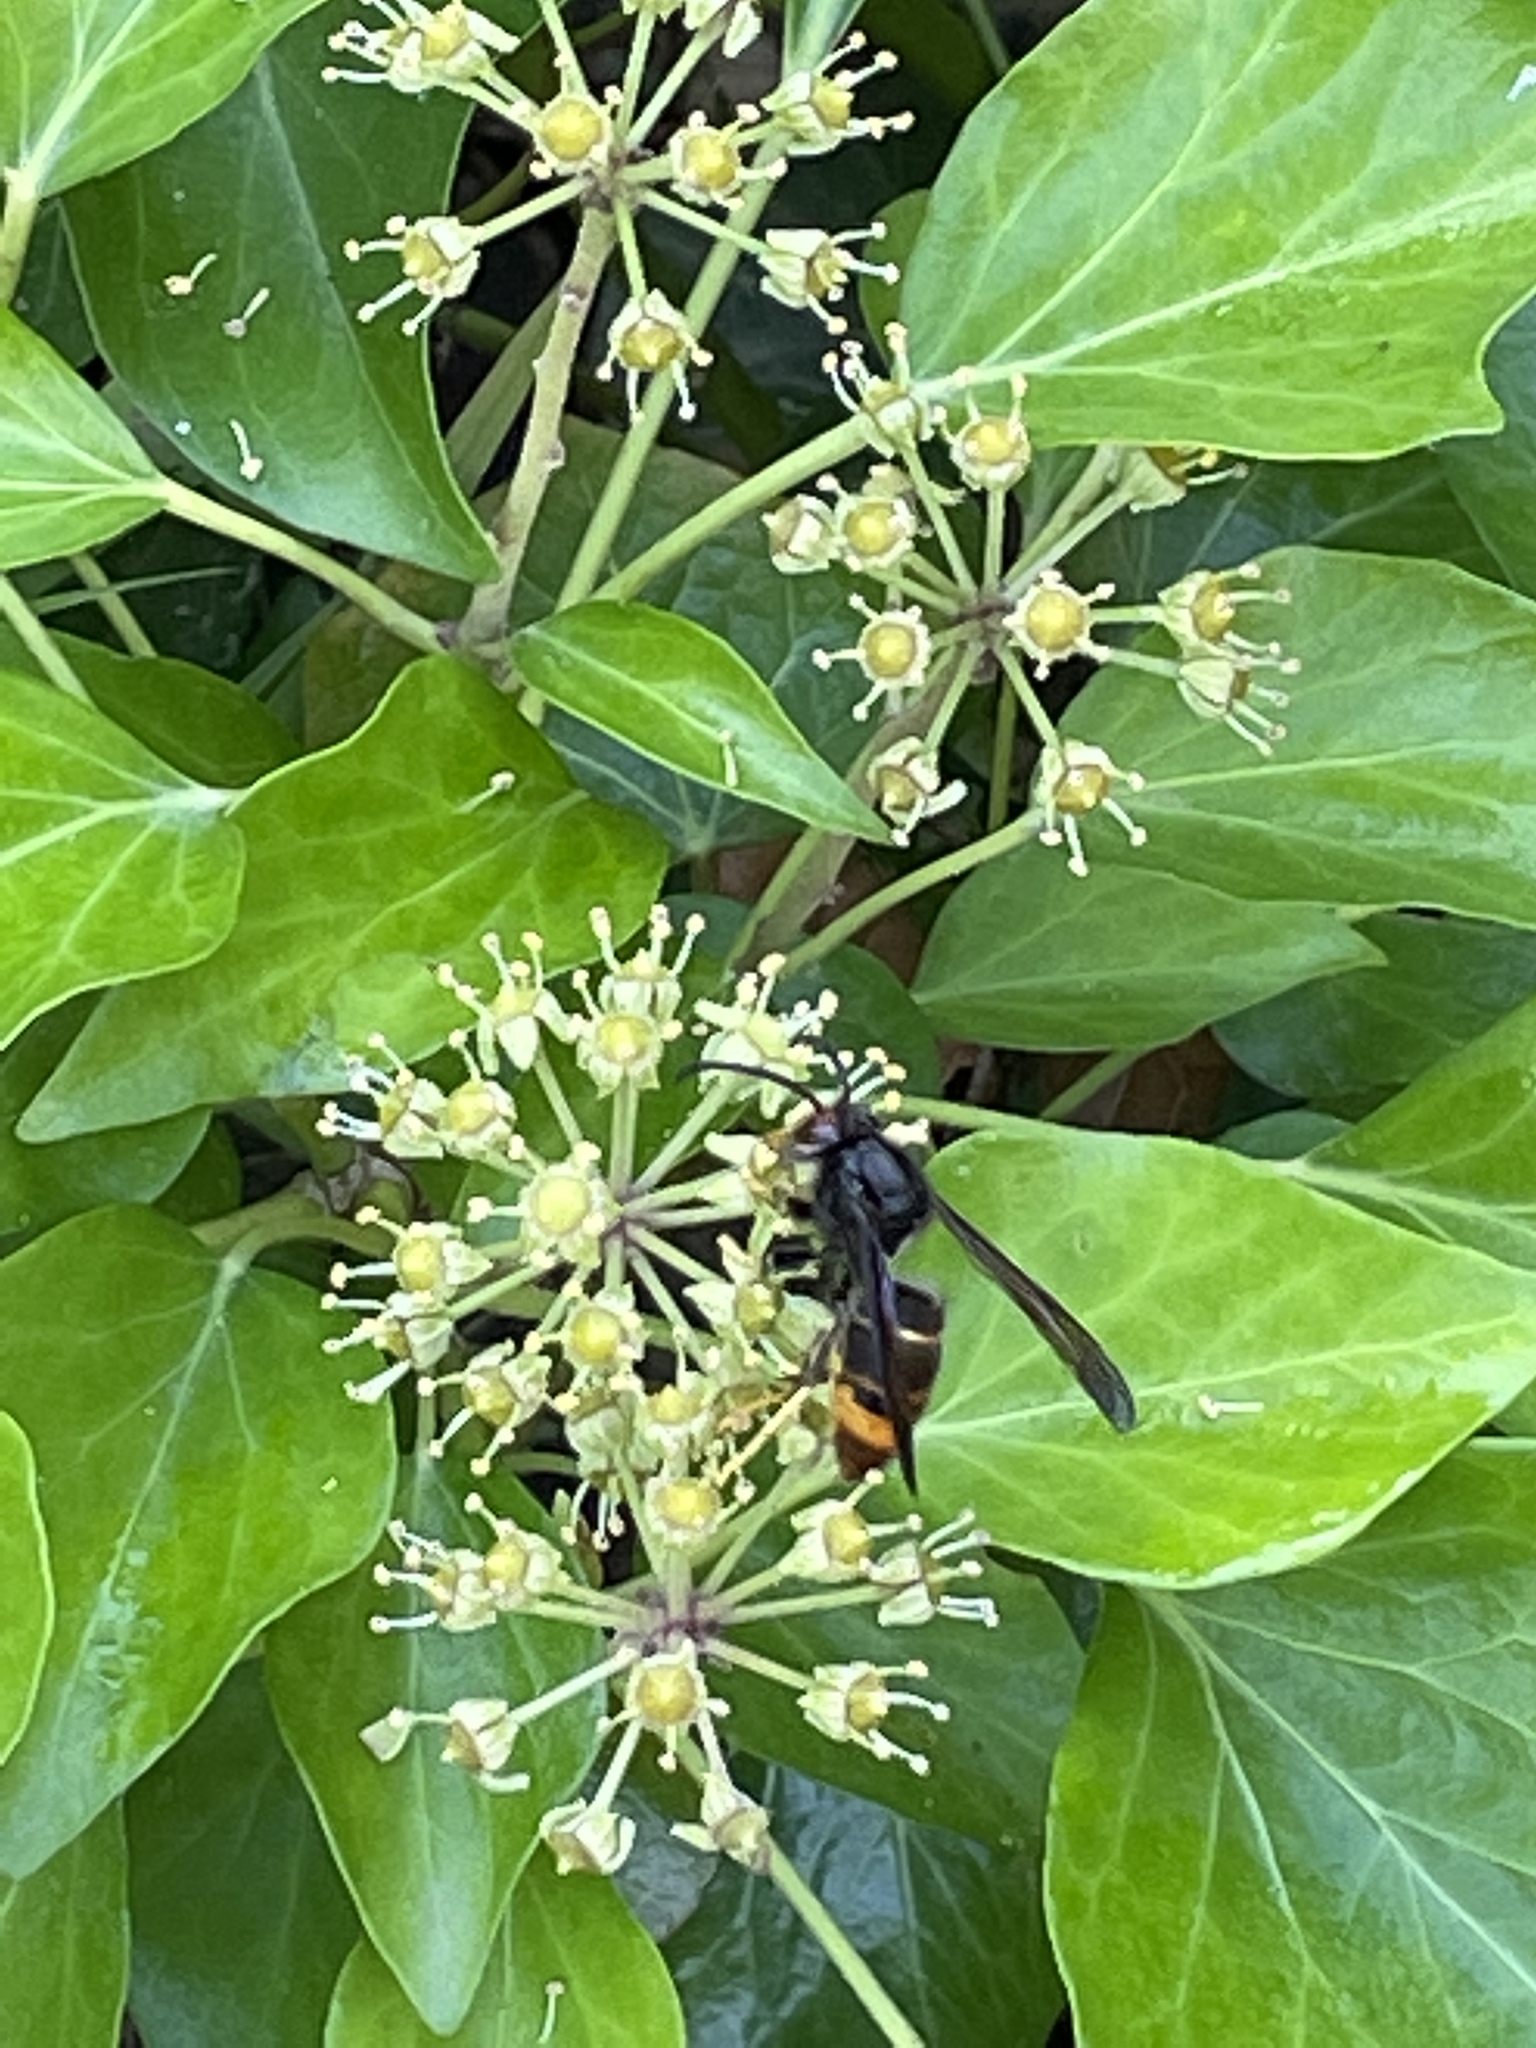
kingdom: Animalia
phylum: Arthropoda
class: Insecta
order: Hymenoptera
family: Vespidae
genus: Vespa
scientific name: Vespa velutina
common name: Asian hornet
